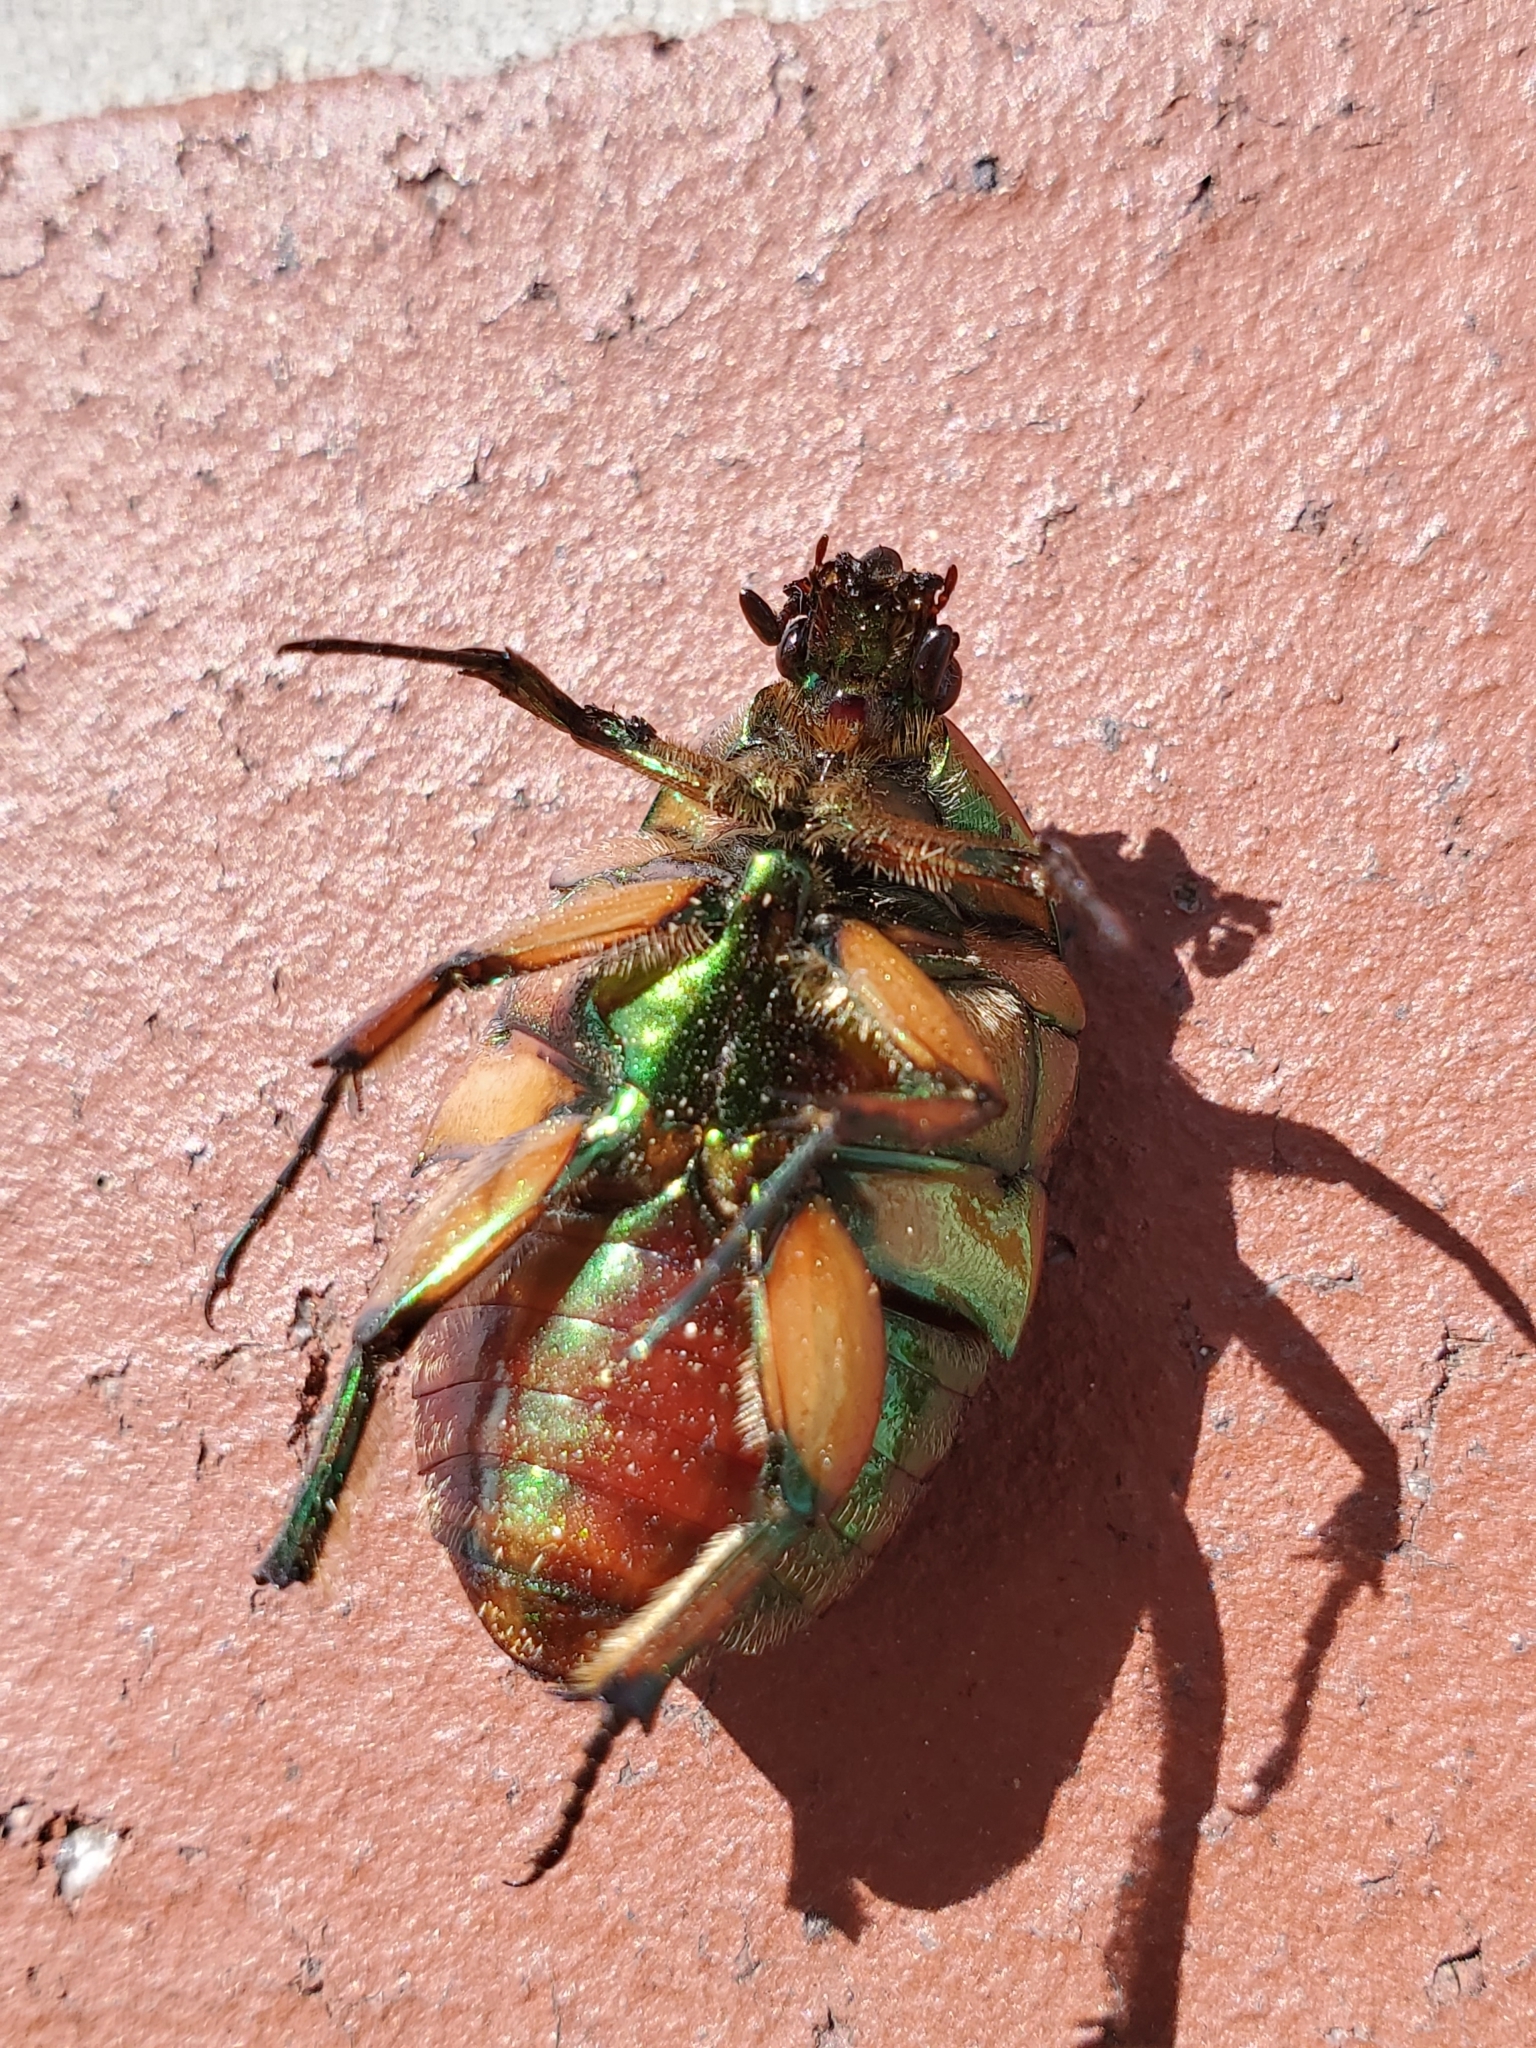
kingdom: Animalia
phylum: Arthropoda
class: Insecta
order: Coleoptera
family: Scarabaeidae
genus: Cotinis
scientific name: Cotinis nitida
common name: Common green june beetle
